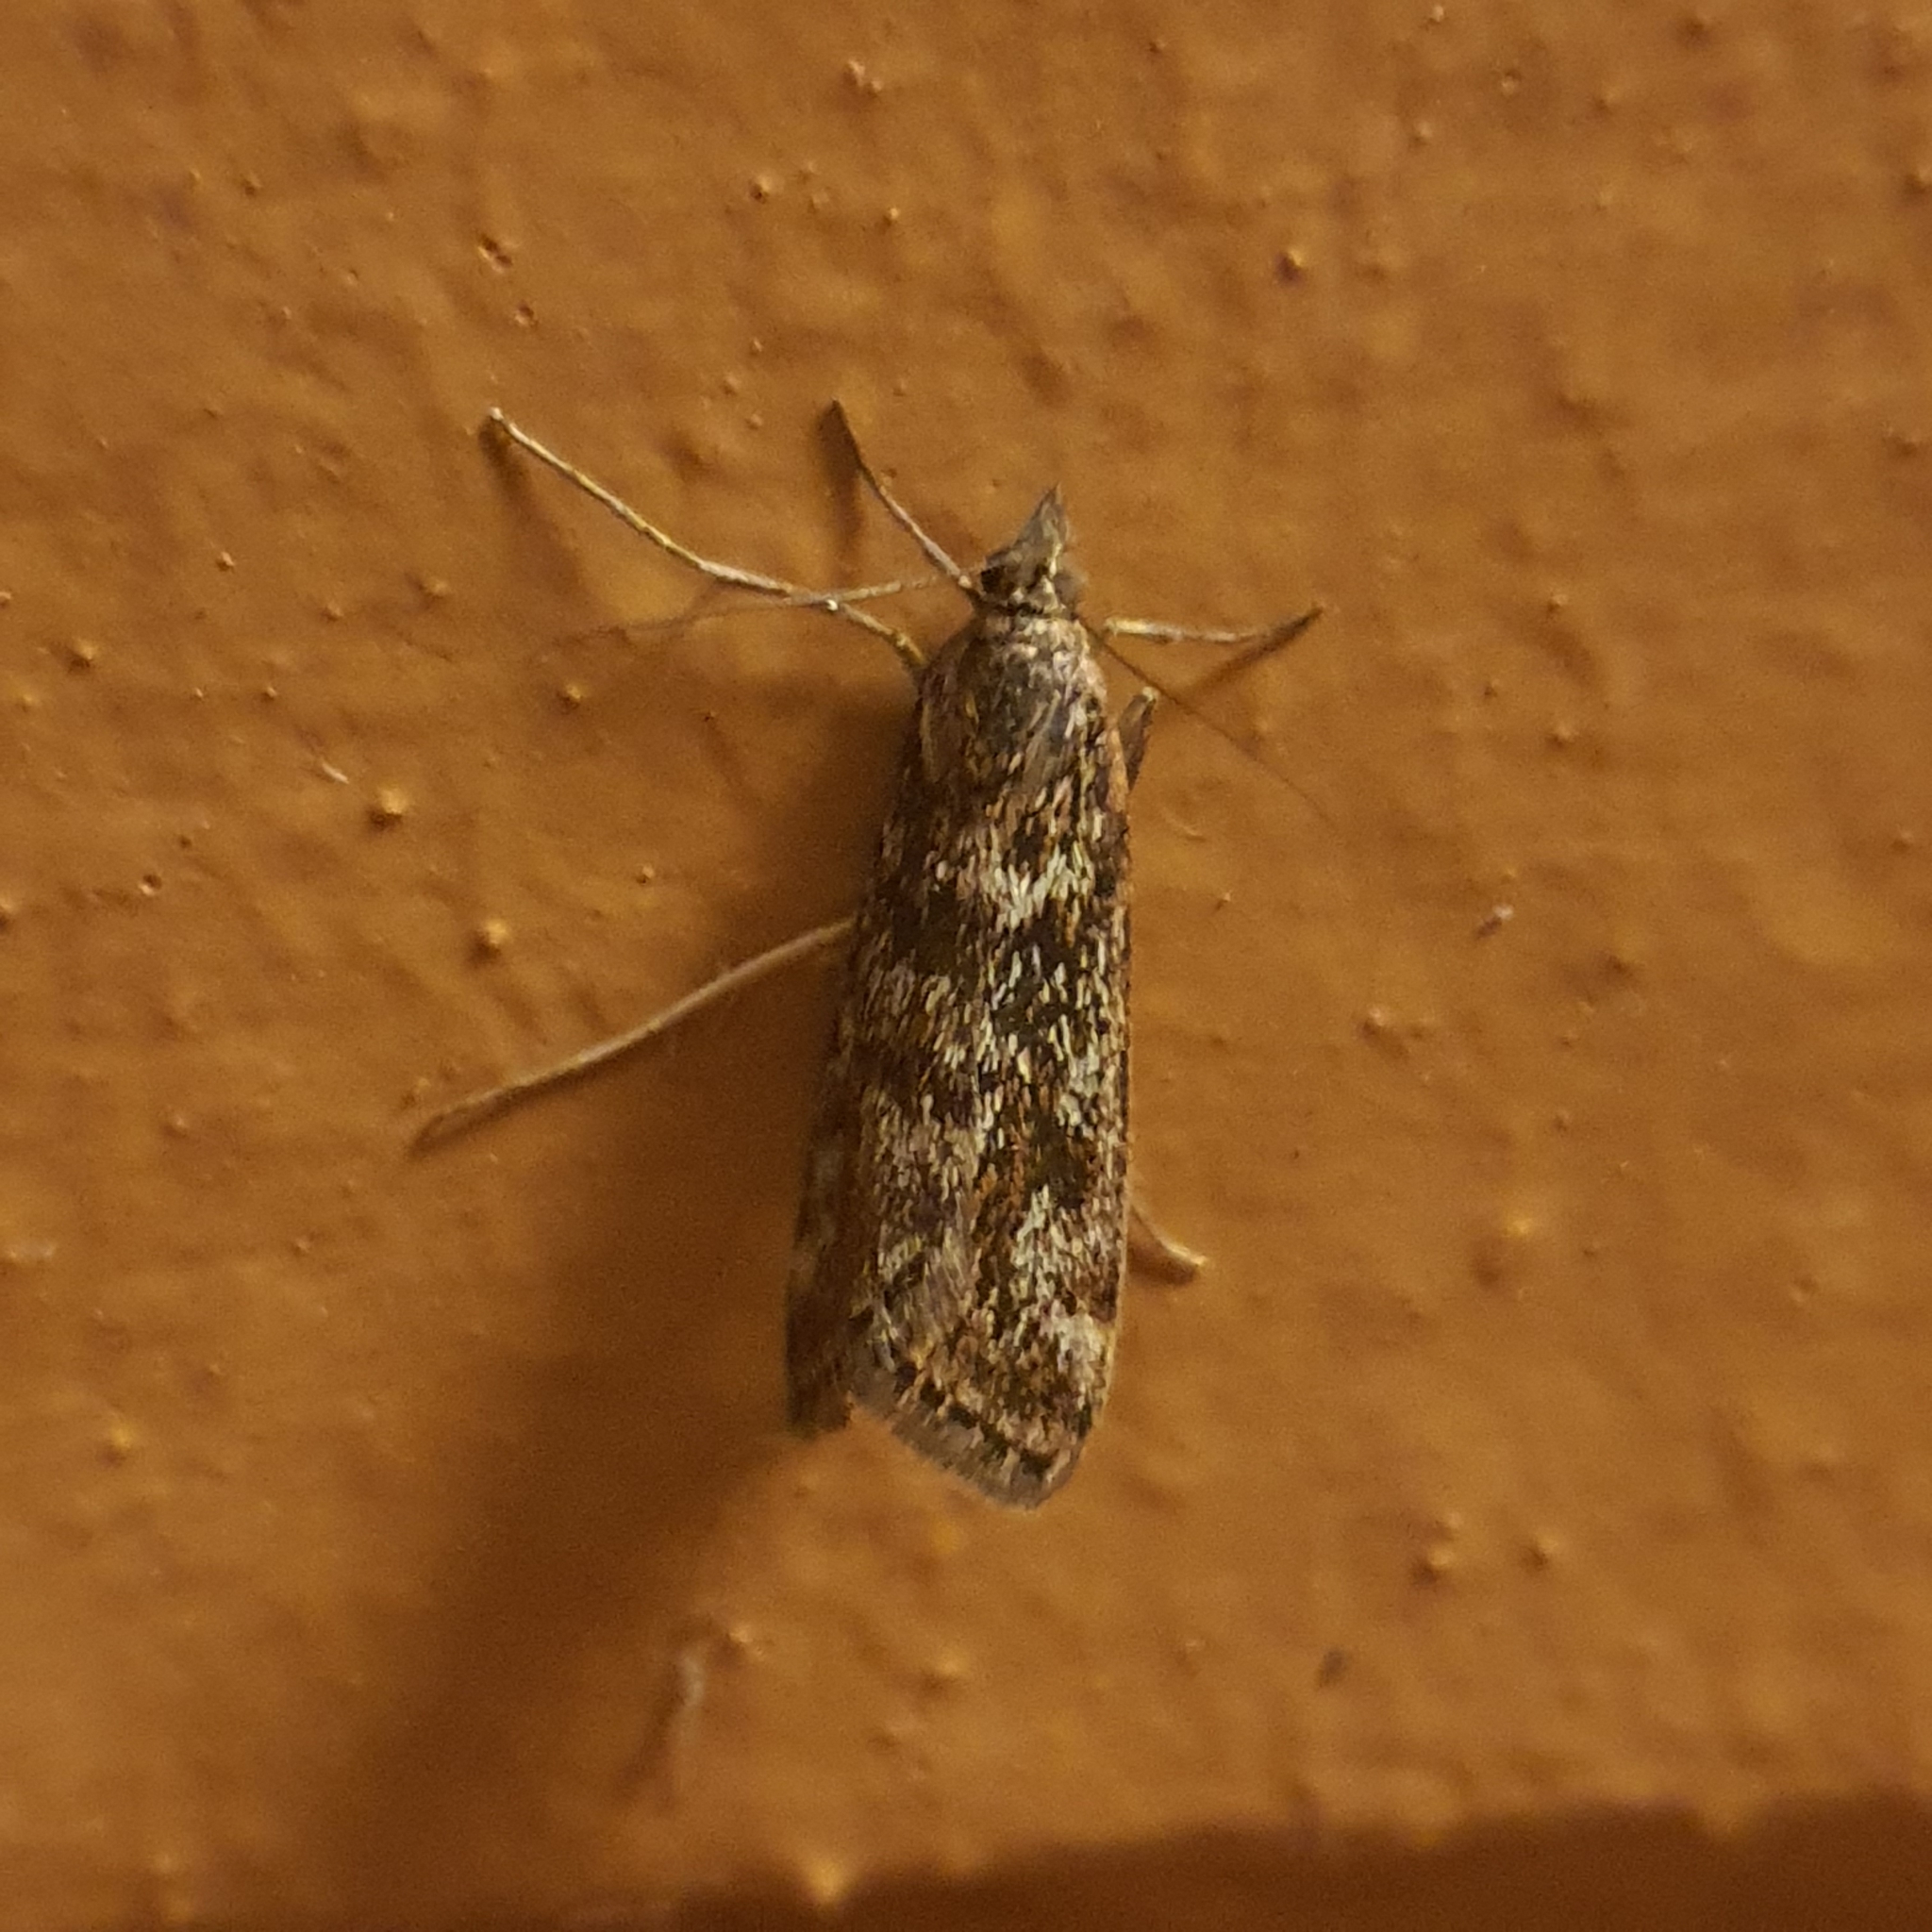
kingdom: Animalia
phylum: Arthropoda
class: Insecta
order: Lepidoptera
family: Crambidae
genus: Achyra
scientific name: Achyra affinitalis
